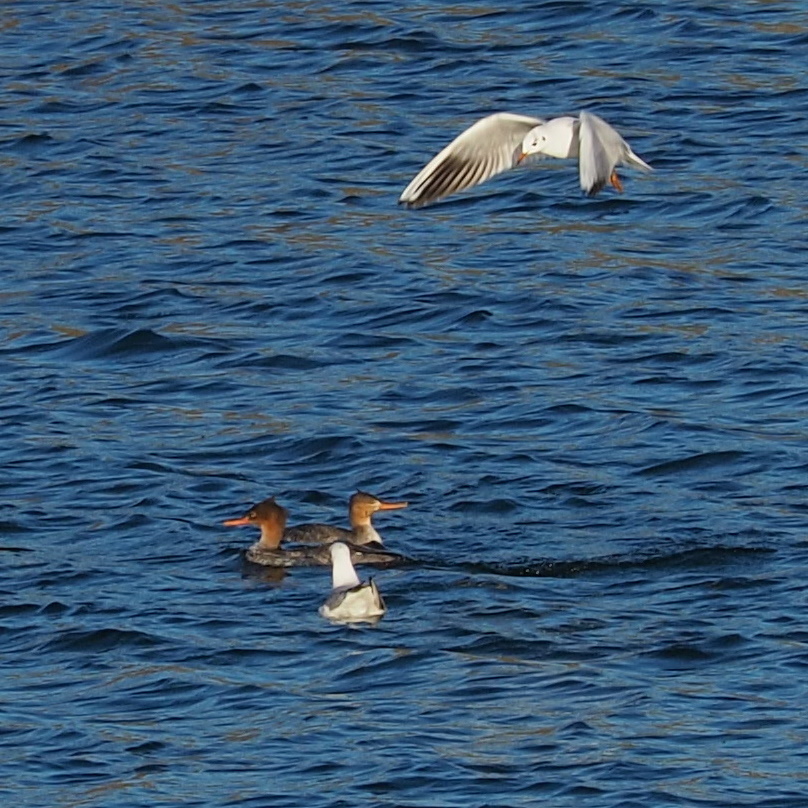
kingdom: Animalia
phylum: Chordata
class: Aves
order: Anseriformes
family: Anatidae
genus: Mergus
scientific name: Mergus serrator
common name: Red-breasted merganser
